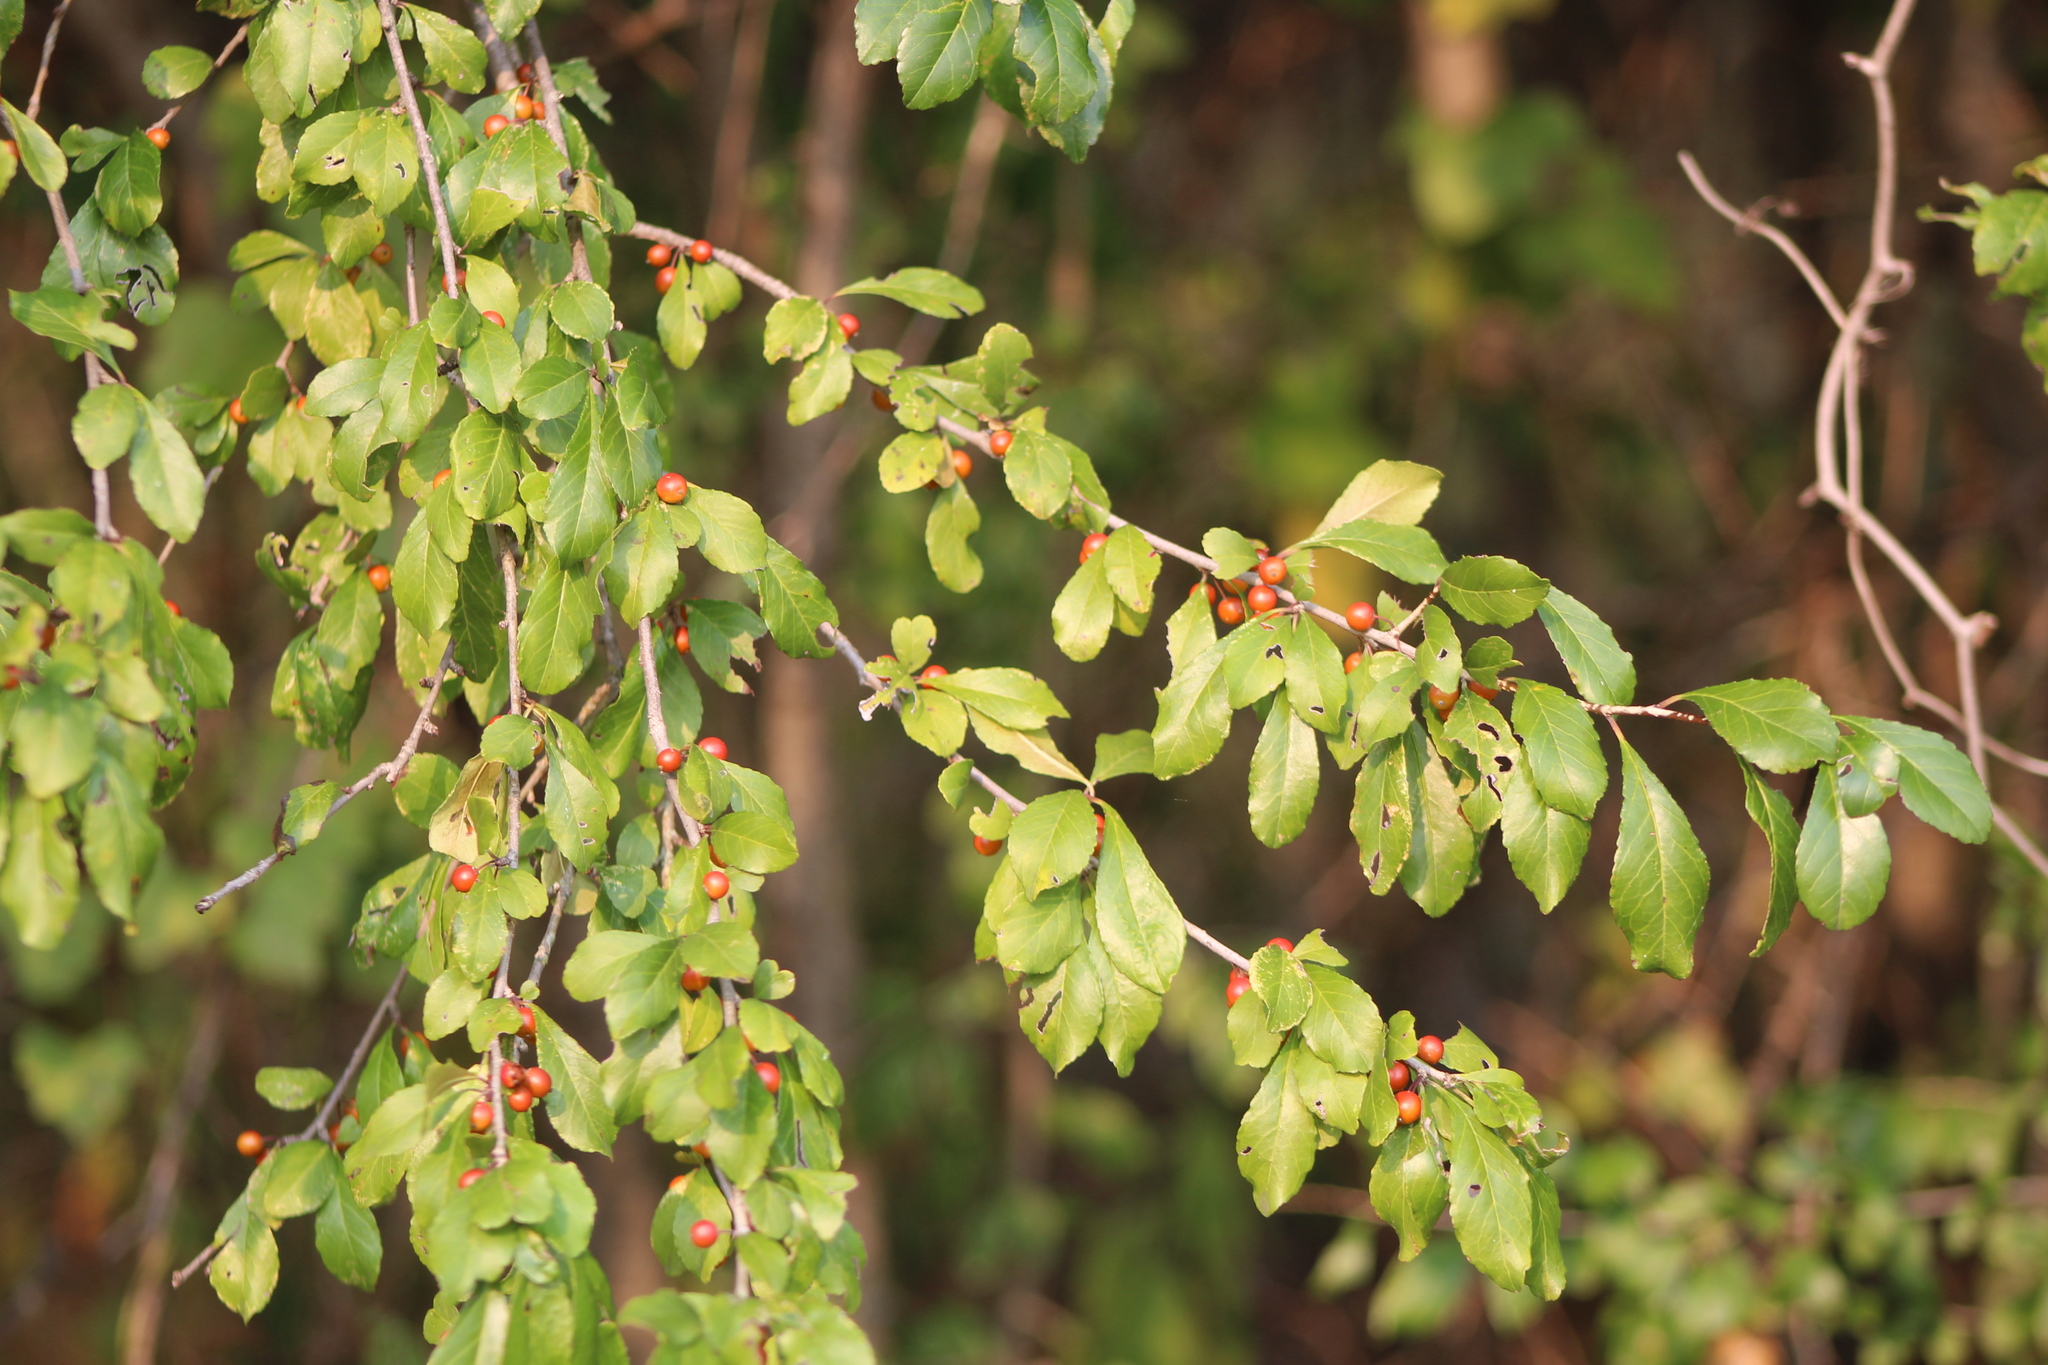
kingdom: Plantae
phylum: Tracheophyta
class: Magnoliopsida
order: Aquifoliales
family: Aquifoliaceae
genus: Ilex
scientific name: Ilex decidua
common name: Possum-haw
